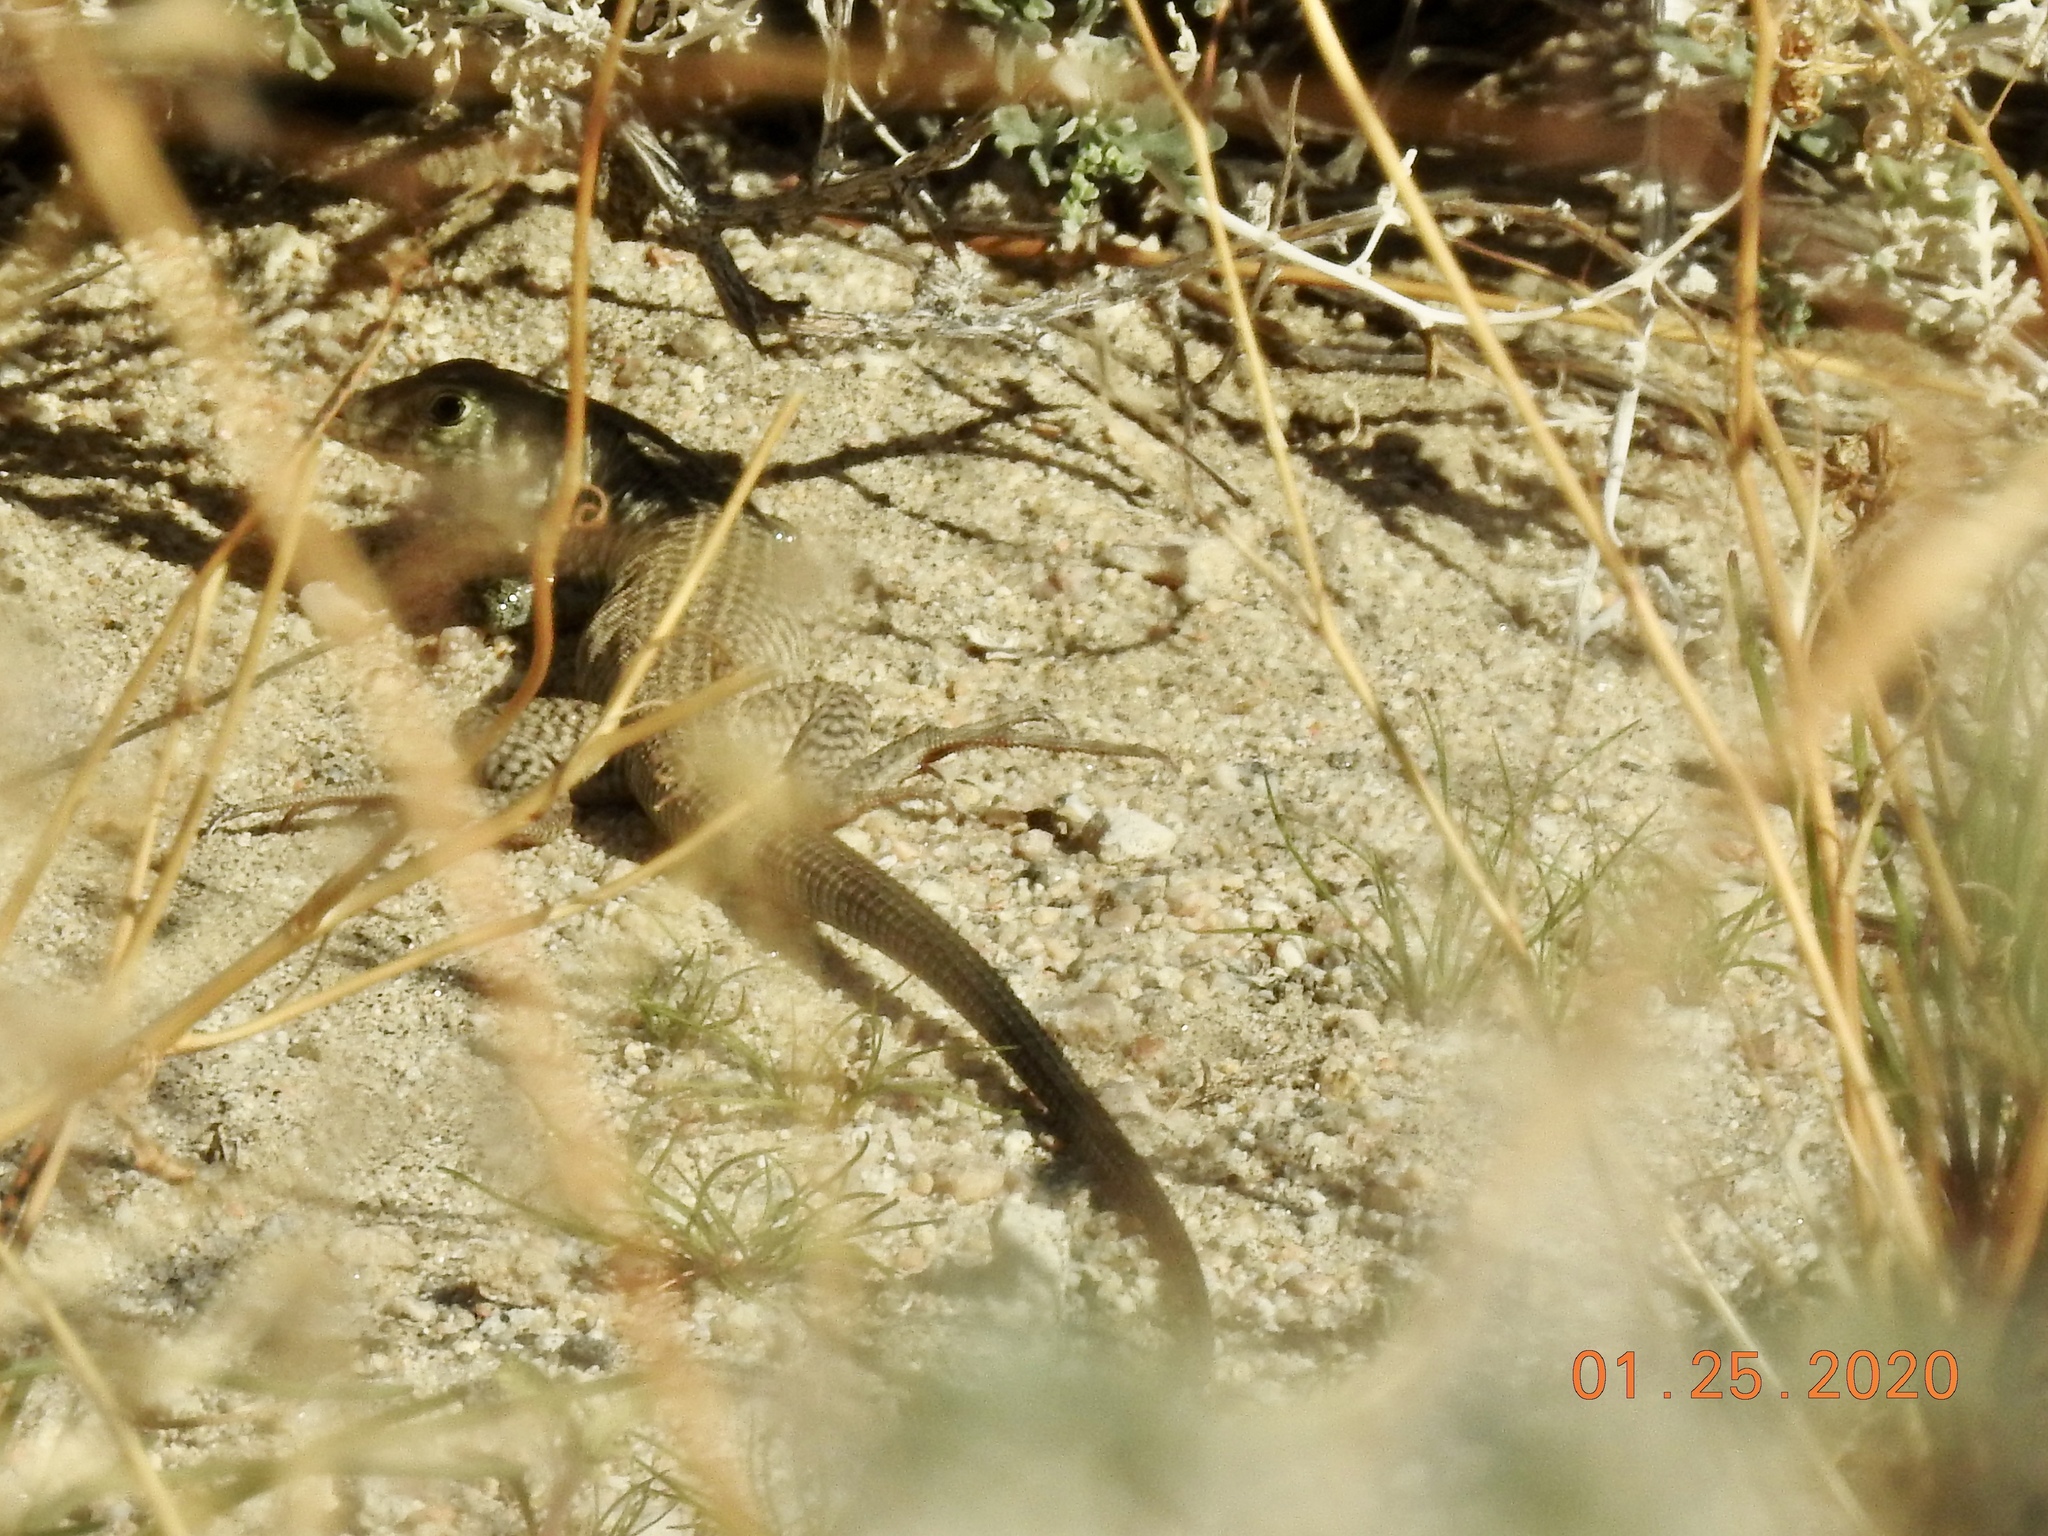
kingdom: Animalia
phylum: Chordata
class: Squamata
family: Teiidae
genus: Aspidoscelis
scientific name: Aspidoscelis tigris
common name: Tiger whiptail
